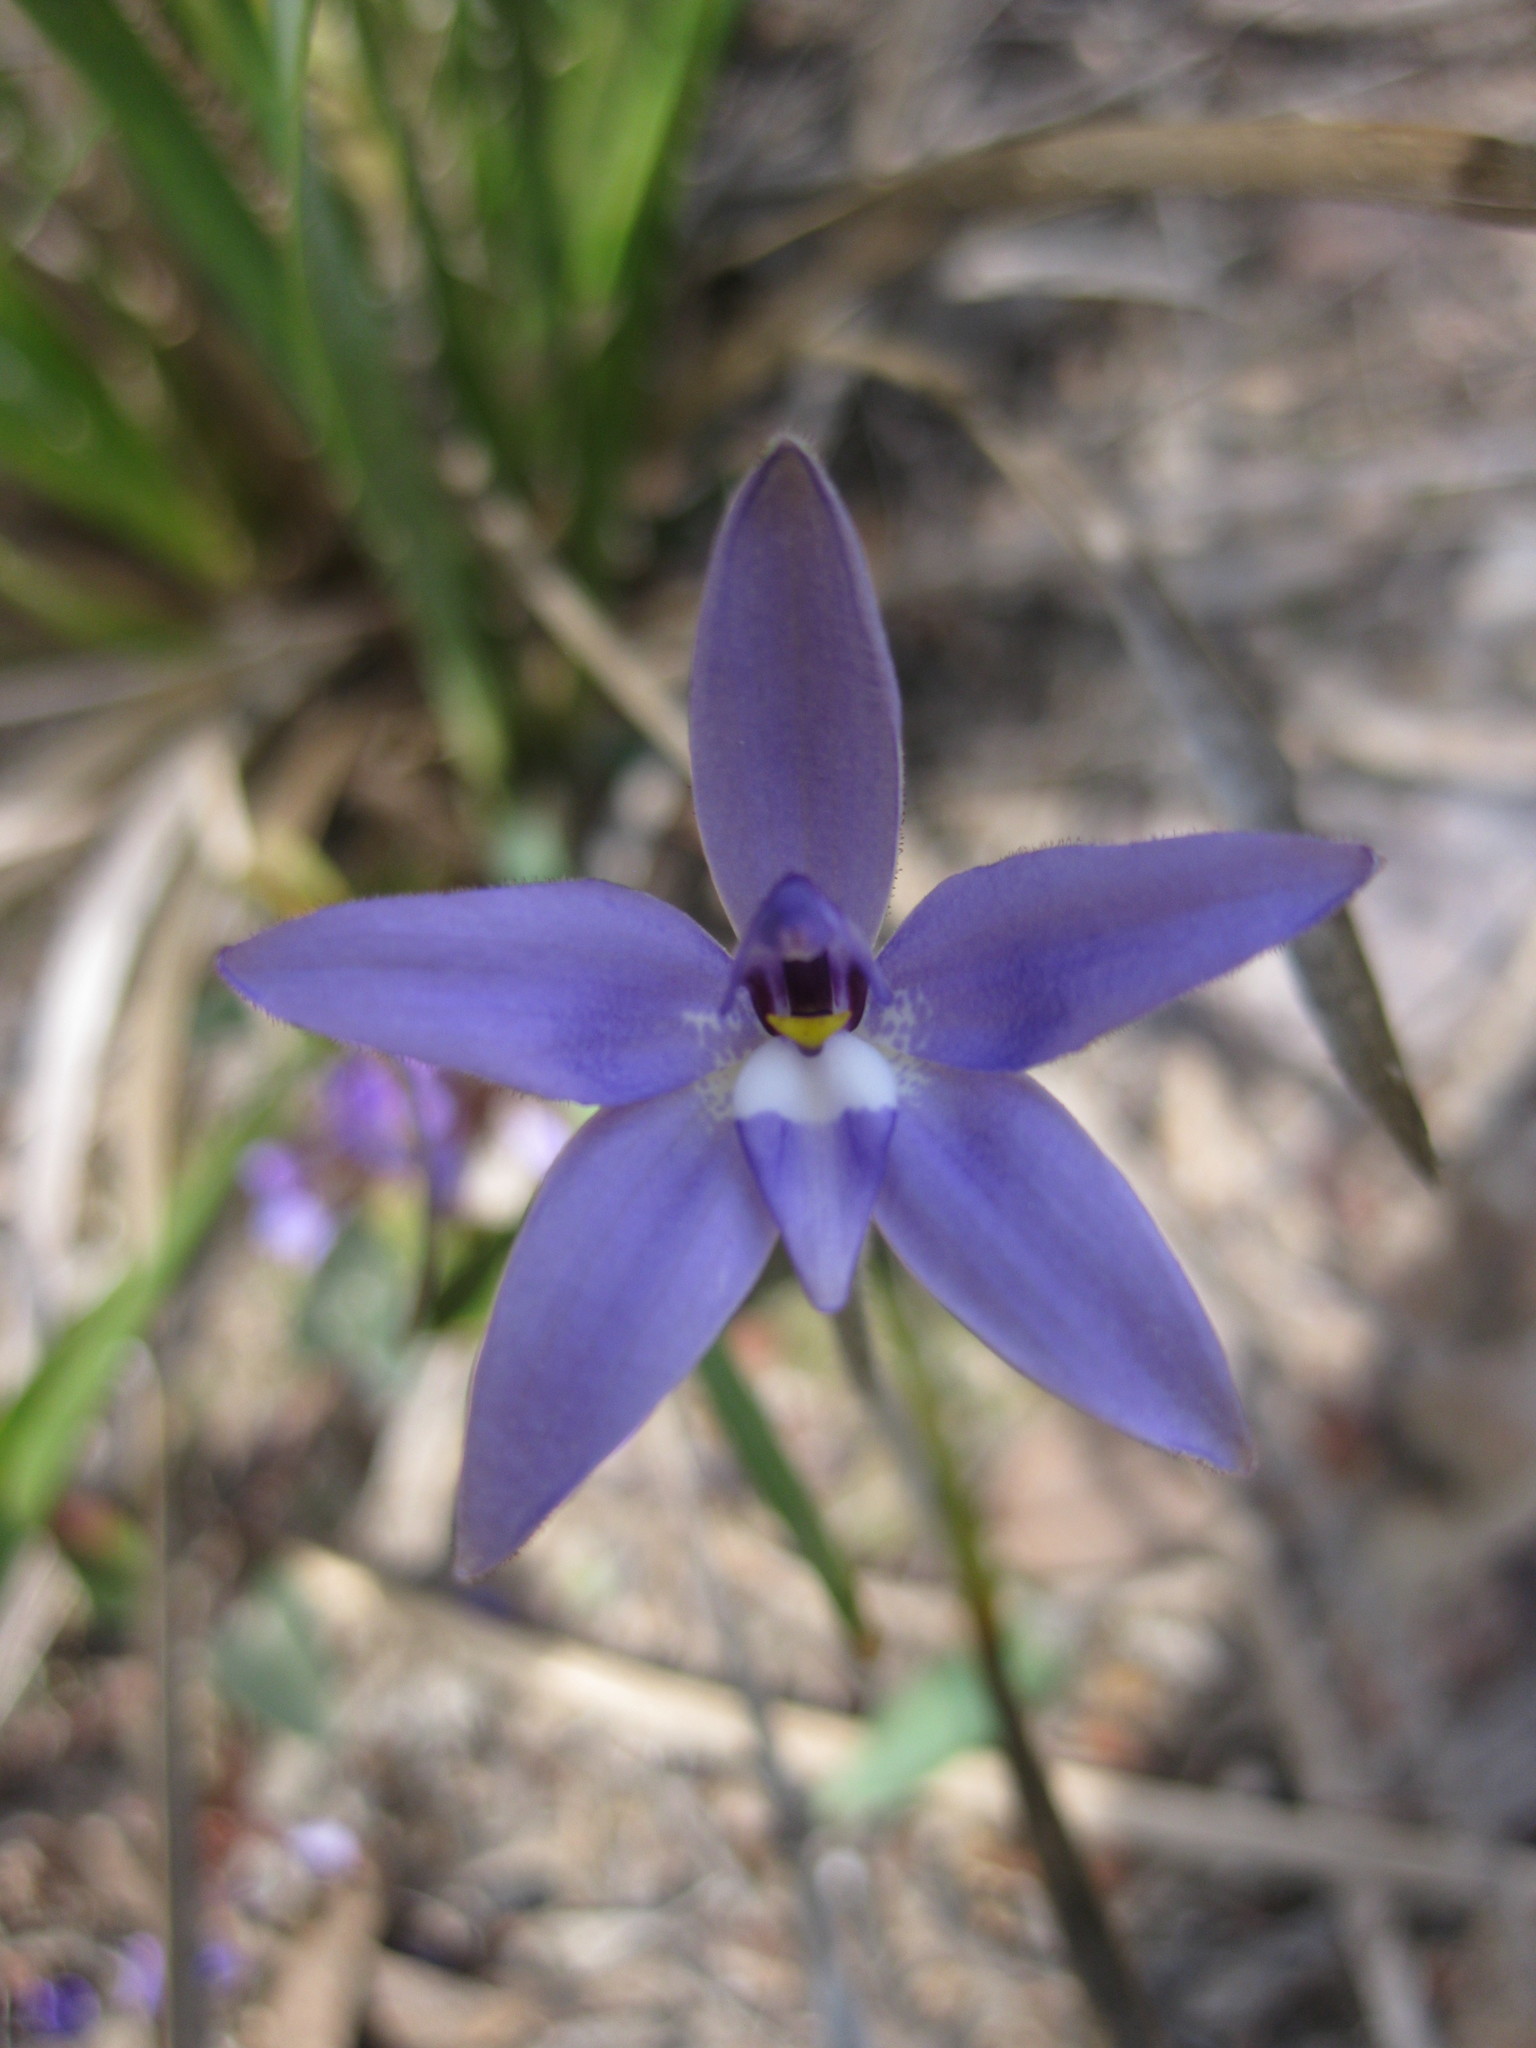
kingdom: Plantae
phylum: Tracheophyta
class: Liliopsida
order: Asparagales
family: Orchidaceae
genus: Caladenia
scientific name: Caladenia major
